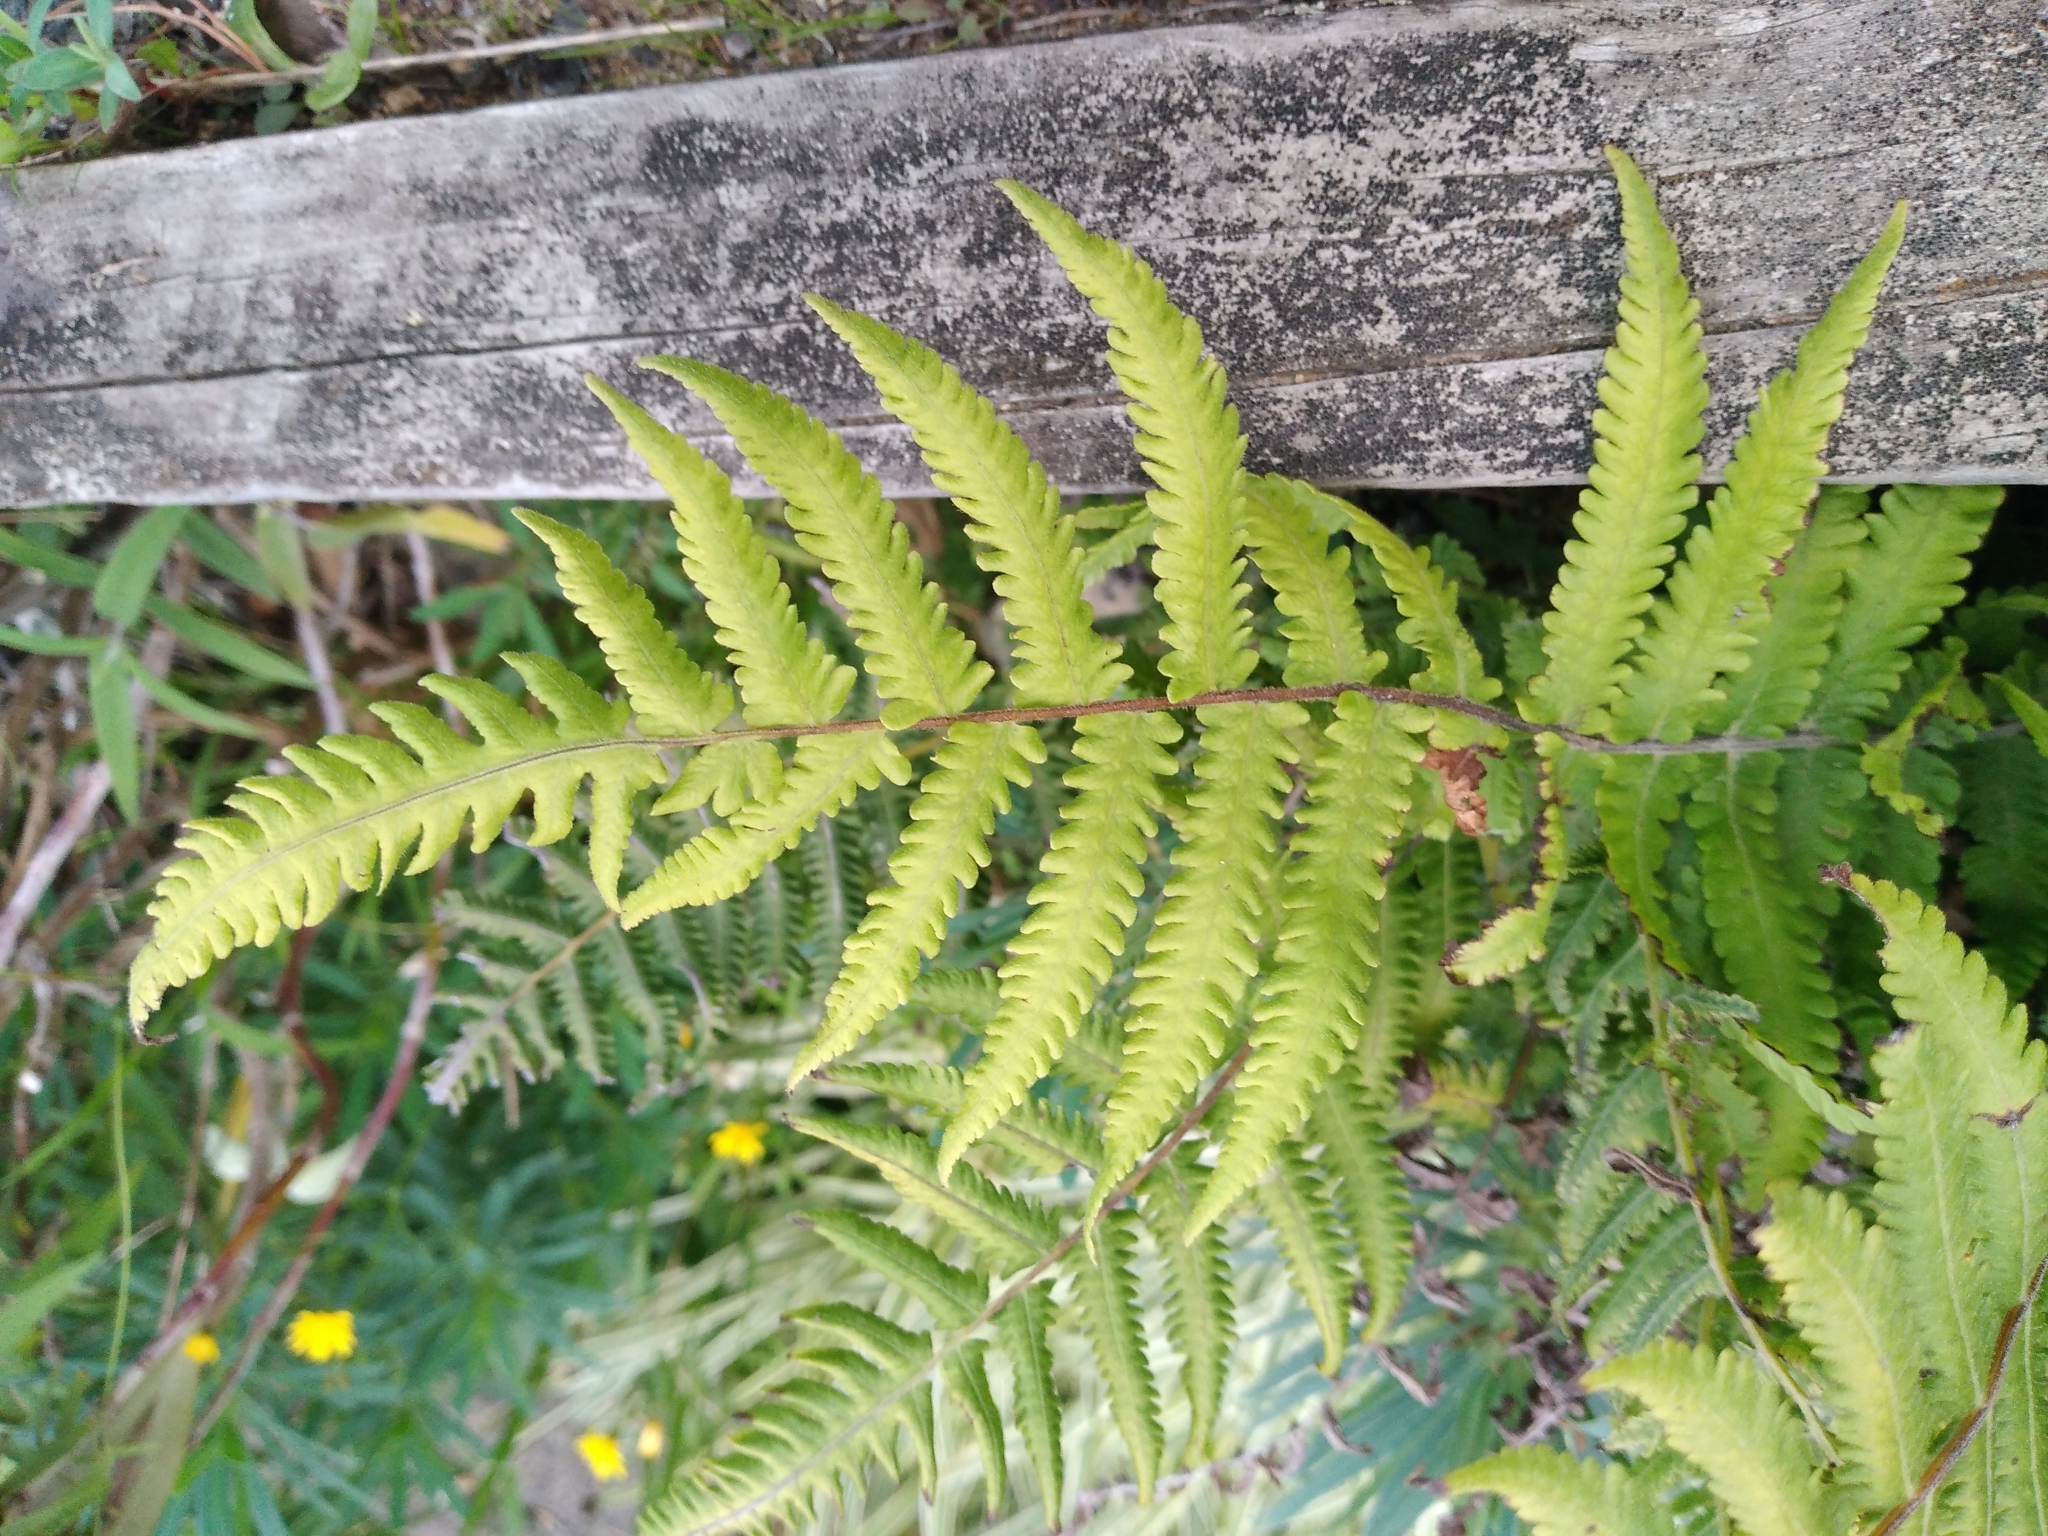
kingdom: Plantae
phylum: Tracheophyta
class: Polypodiopsida
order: Polypodiales
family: Thelypteridaceae
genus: Christella
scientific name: Christella dentata
